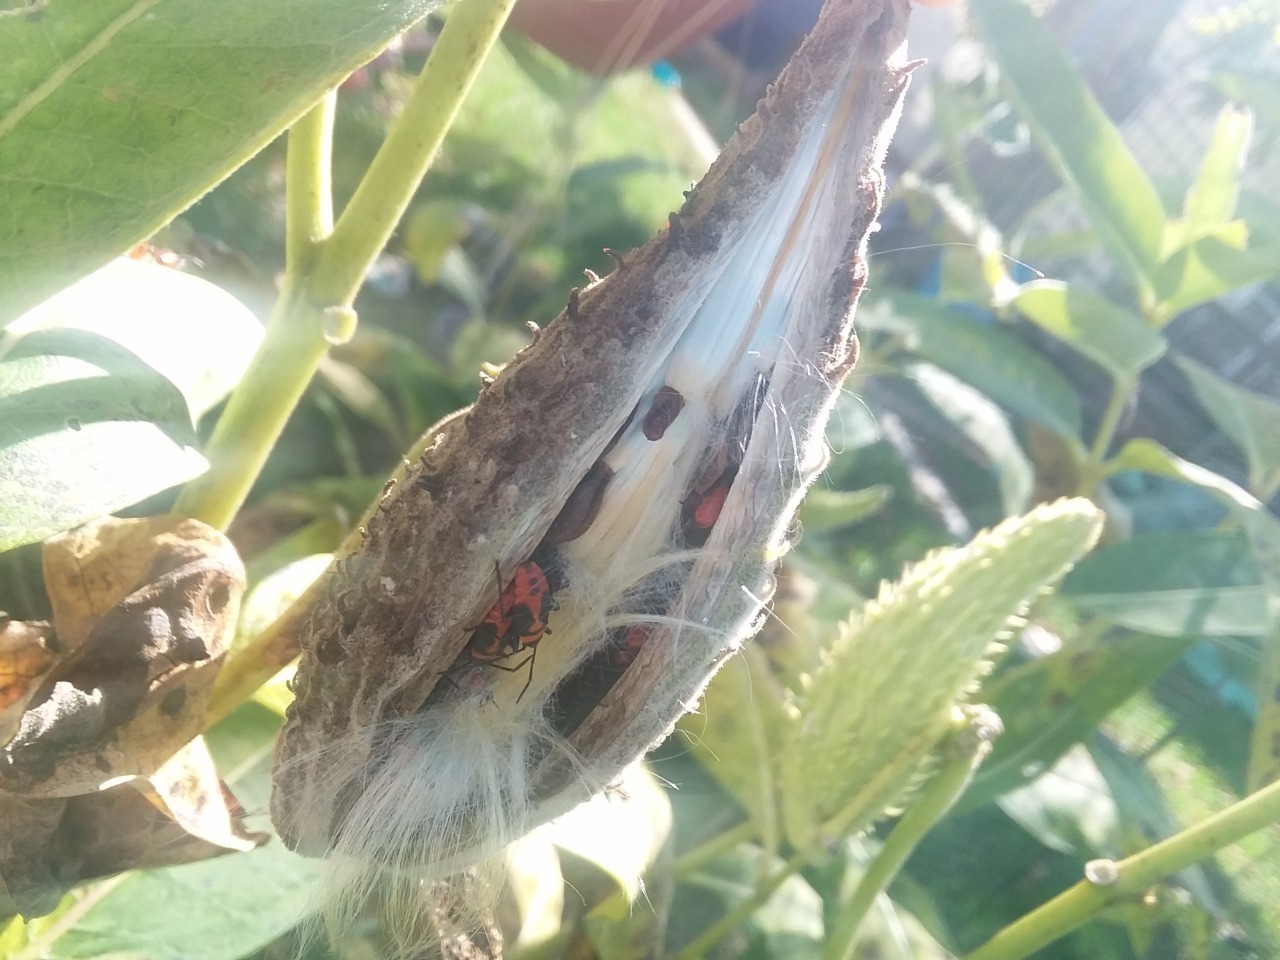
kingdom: Animalia
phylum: Arthropoda
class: Insecta
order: Hemiptera
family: Lygaeidae
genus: Oncopeltus
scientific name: Oncopeltus fasciatus
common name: Large milkweed bug
